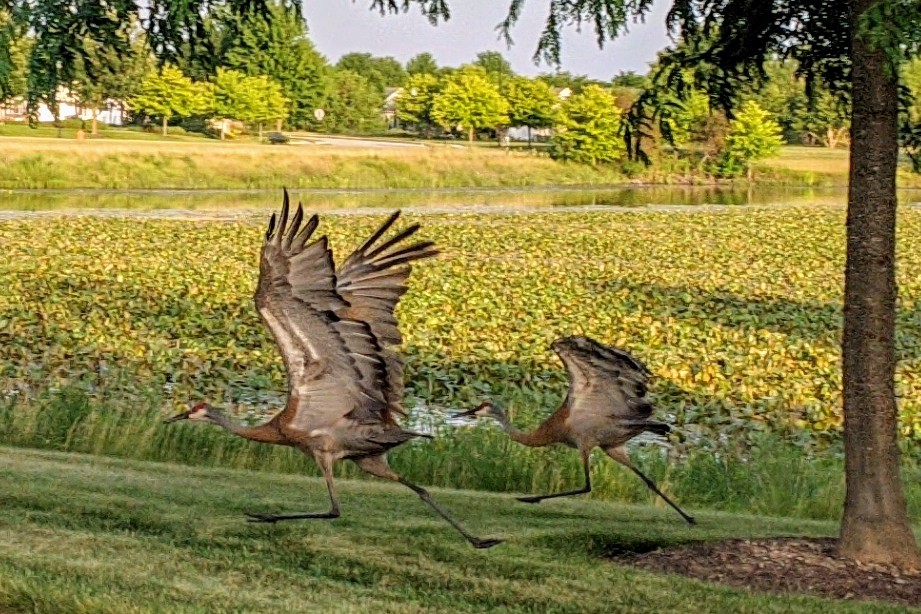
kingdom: Animalia
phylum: Chordata
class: Aves
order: Gruiformes
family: Gruidae
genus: Grus
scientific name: Grus canadensis
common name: Sandhill crane
